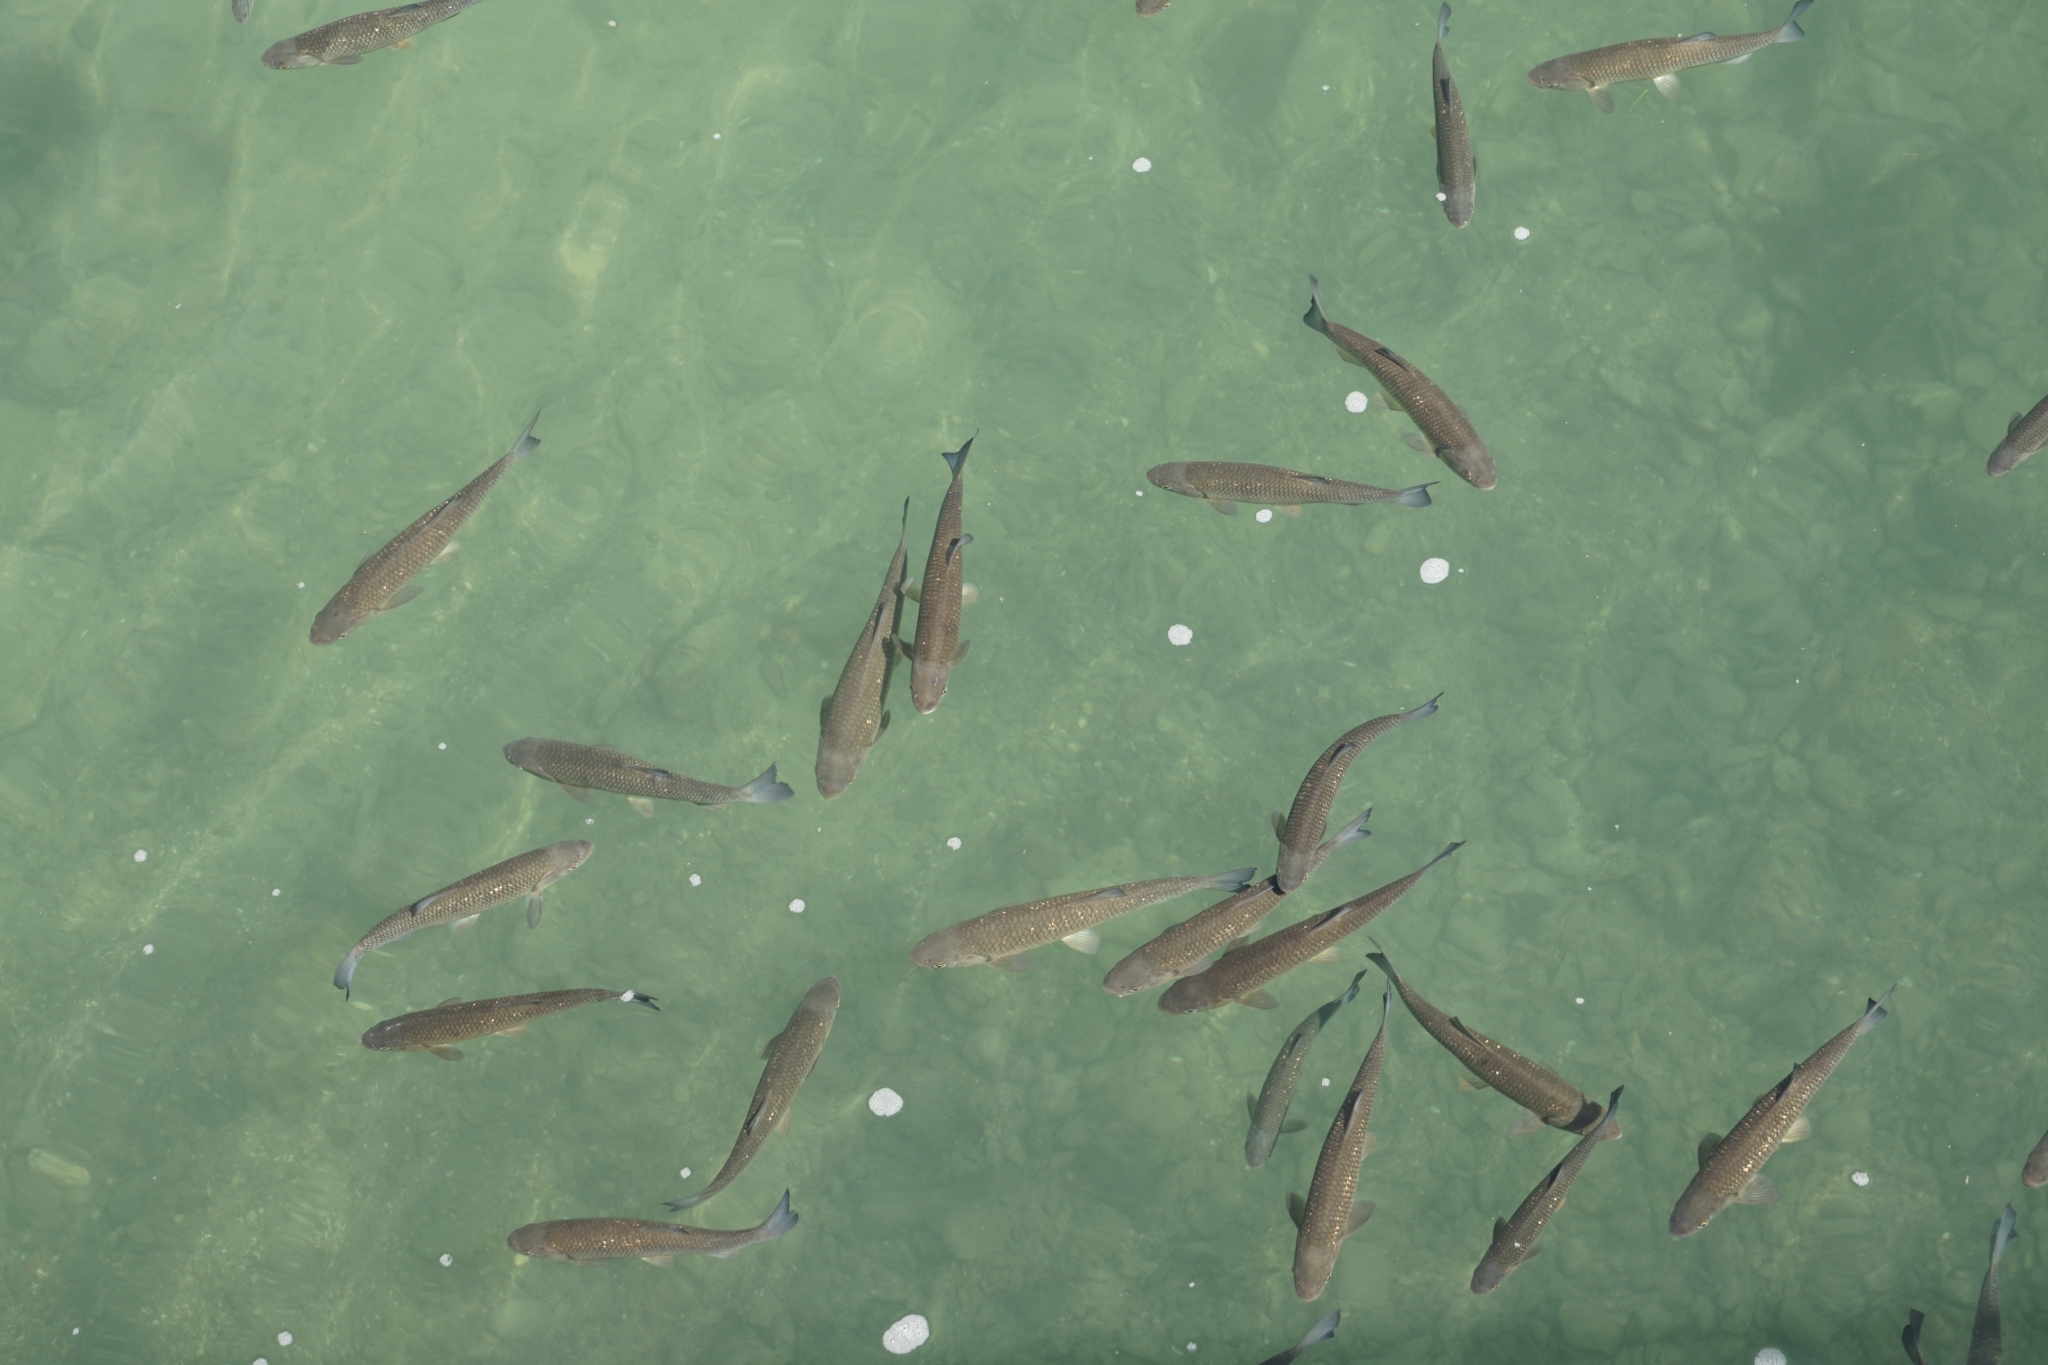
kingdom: Animalia
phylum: Chordata
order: Cypriniformes
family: Cyprinidae
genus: Squalius
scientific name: Squalius cephalus
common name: Chub
